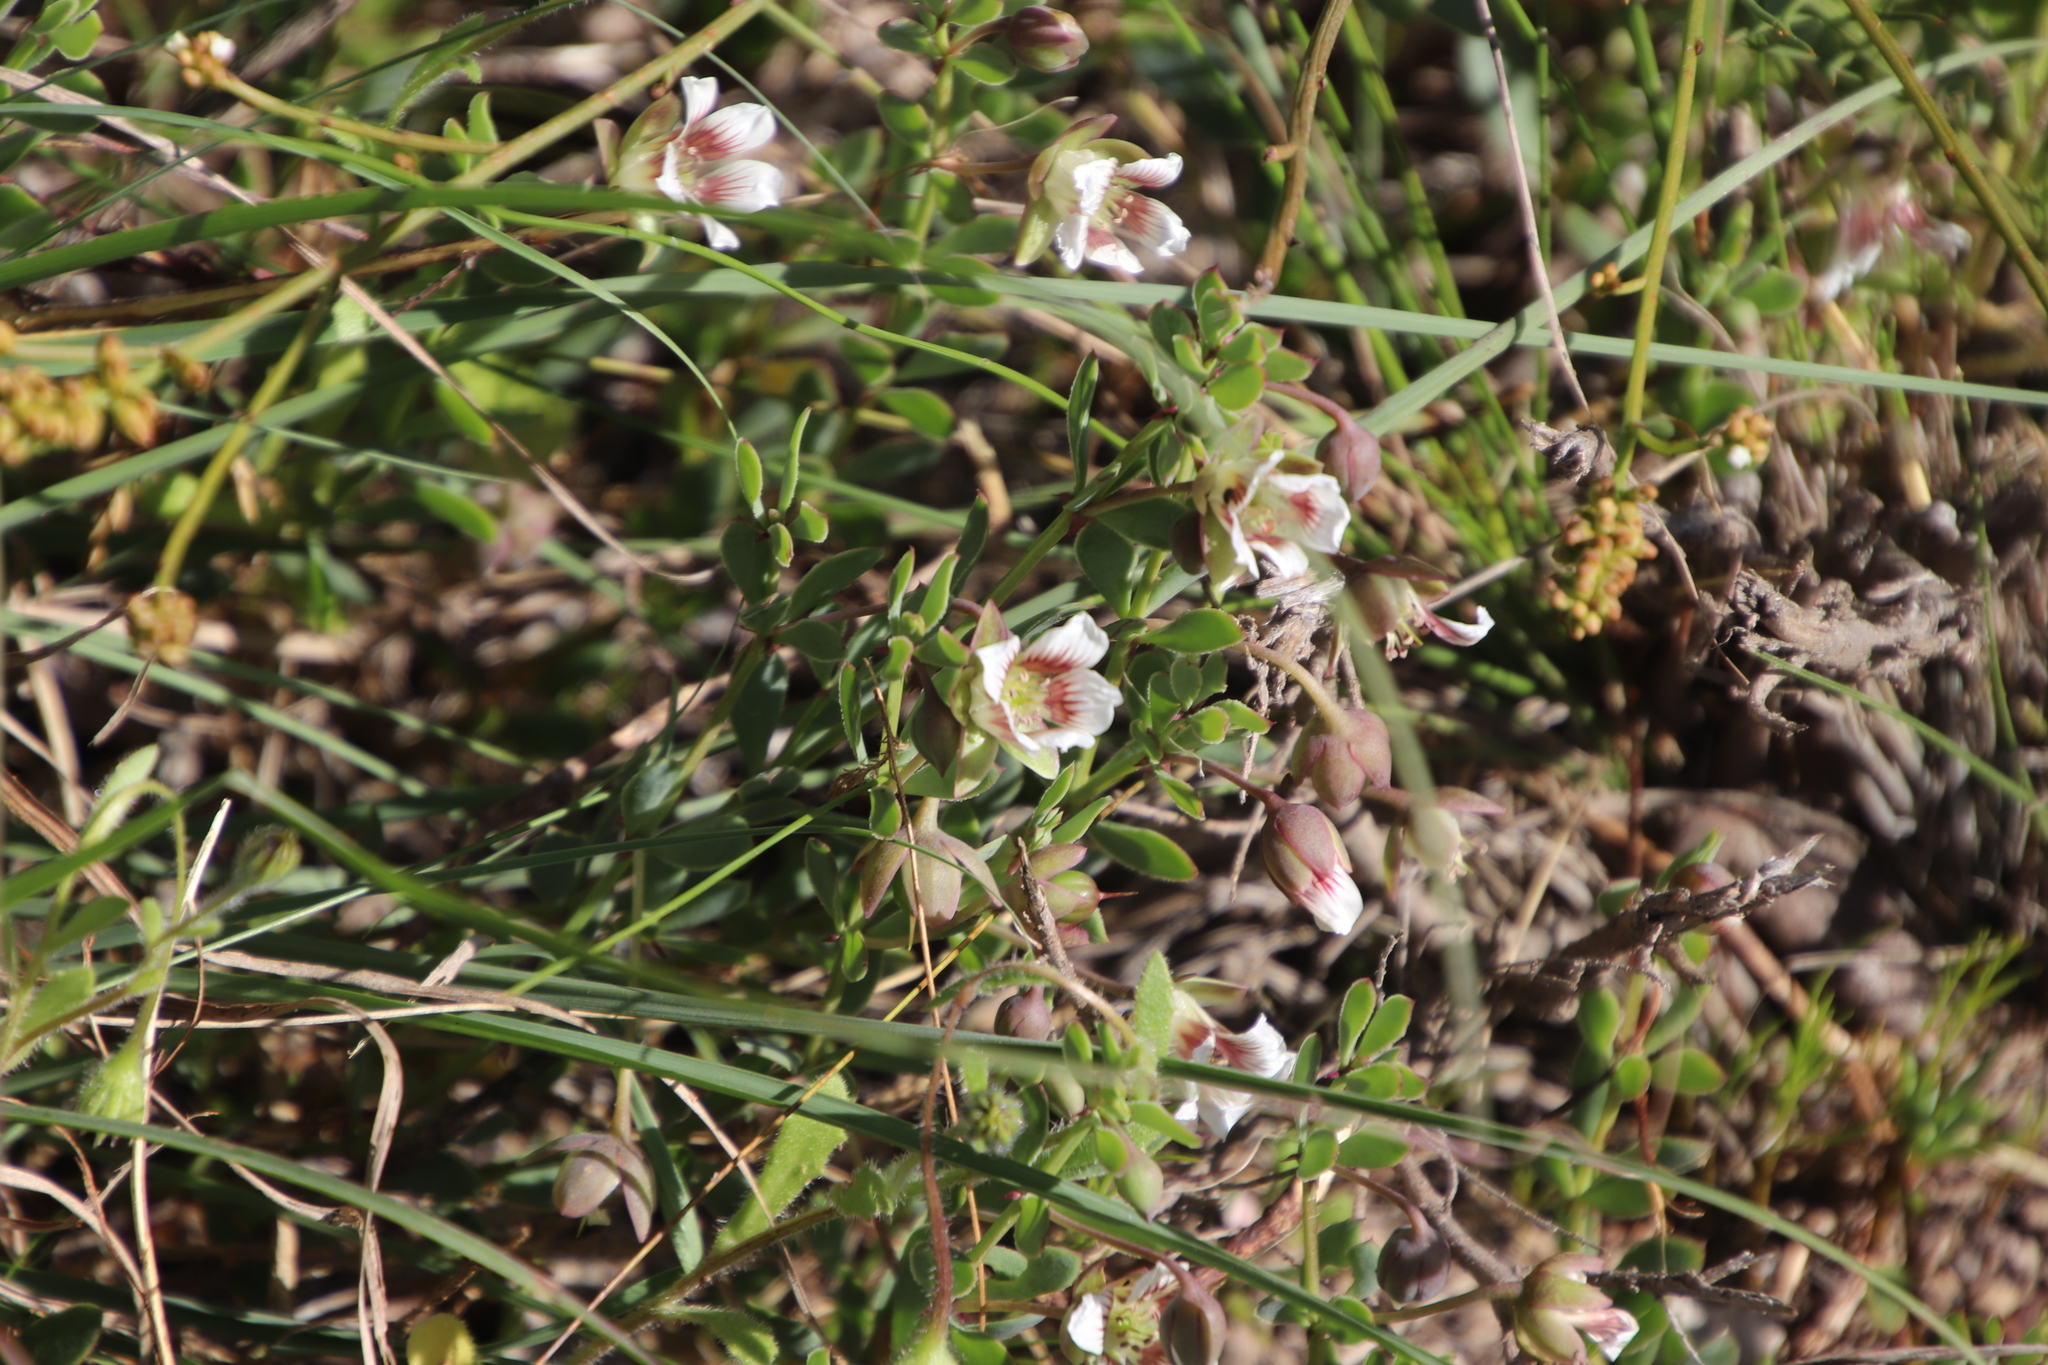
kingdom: Plantae
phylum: Tracheophyta
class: Magnoliopsida
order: Zygophyllales
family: Zygophyllaceae
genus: Roepera
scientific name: Roepera sessilifolia
